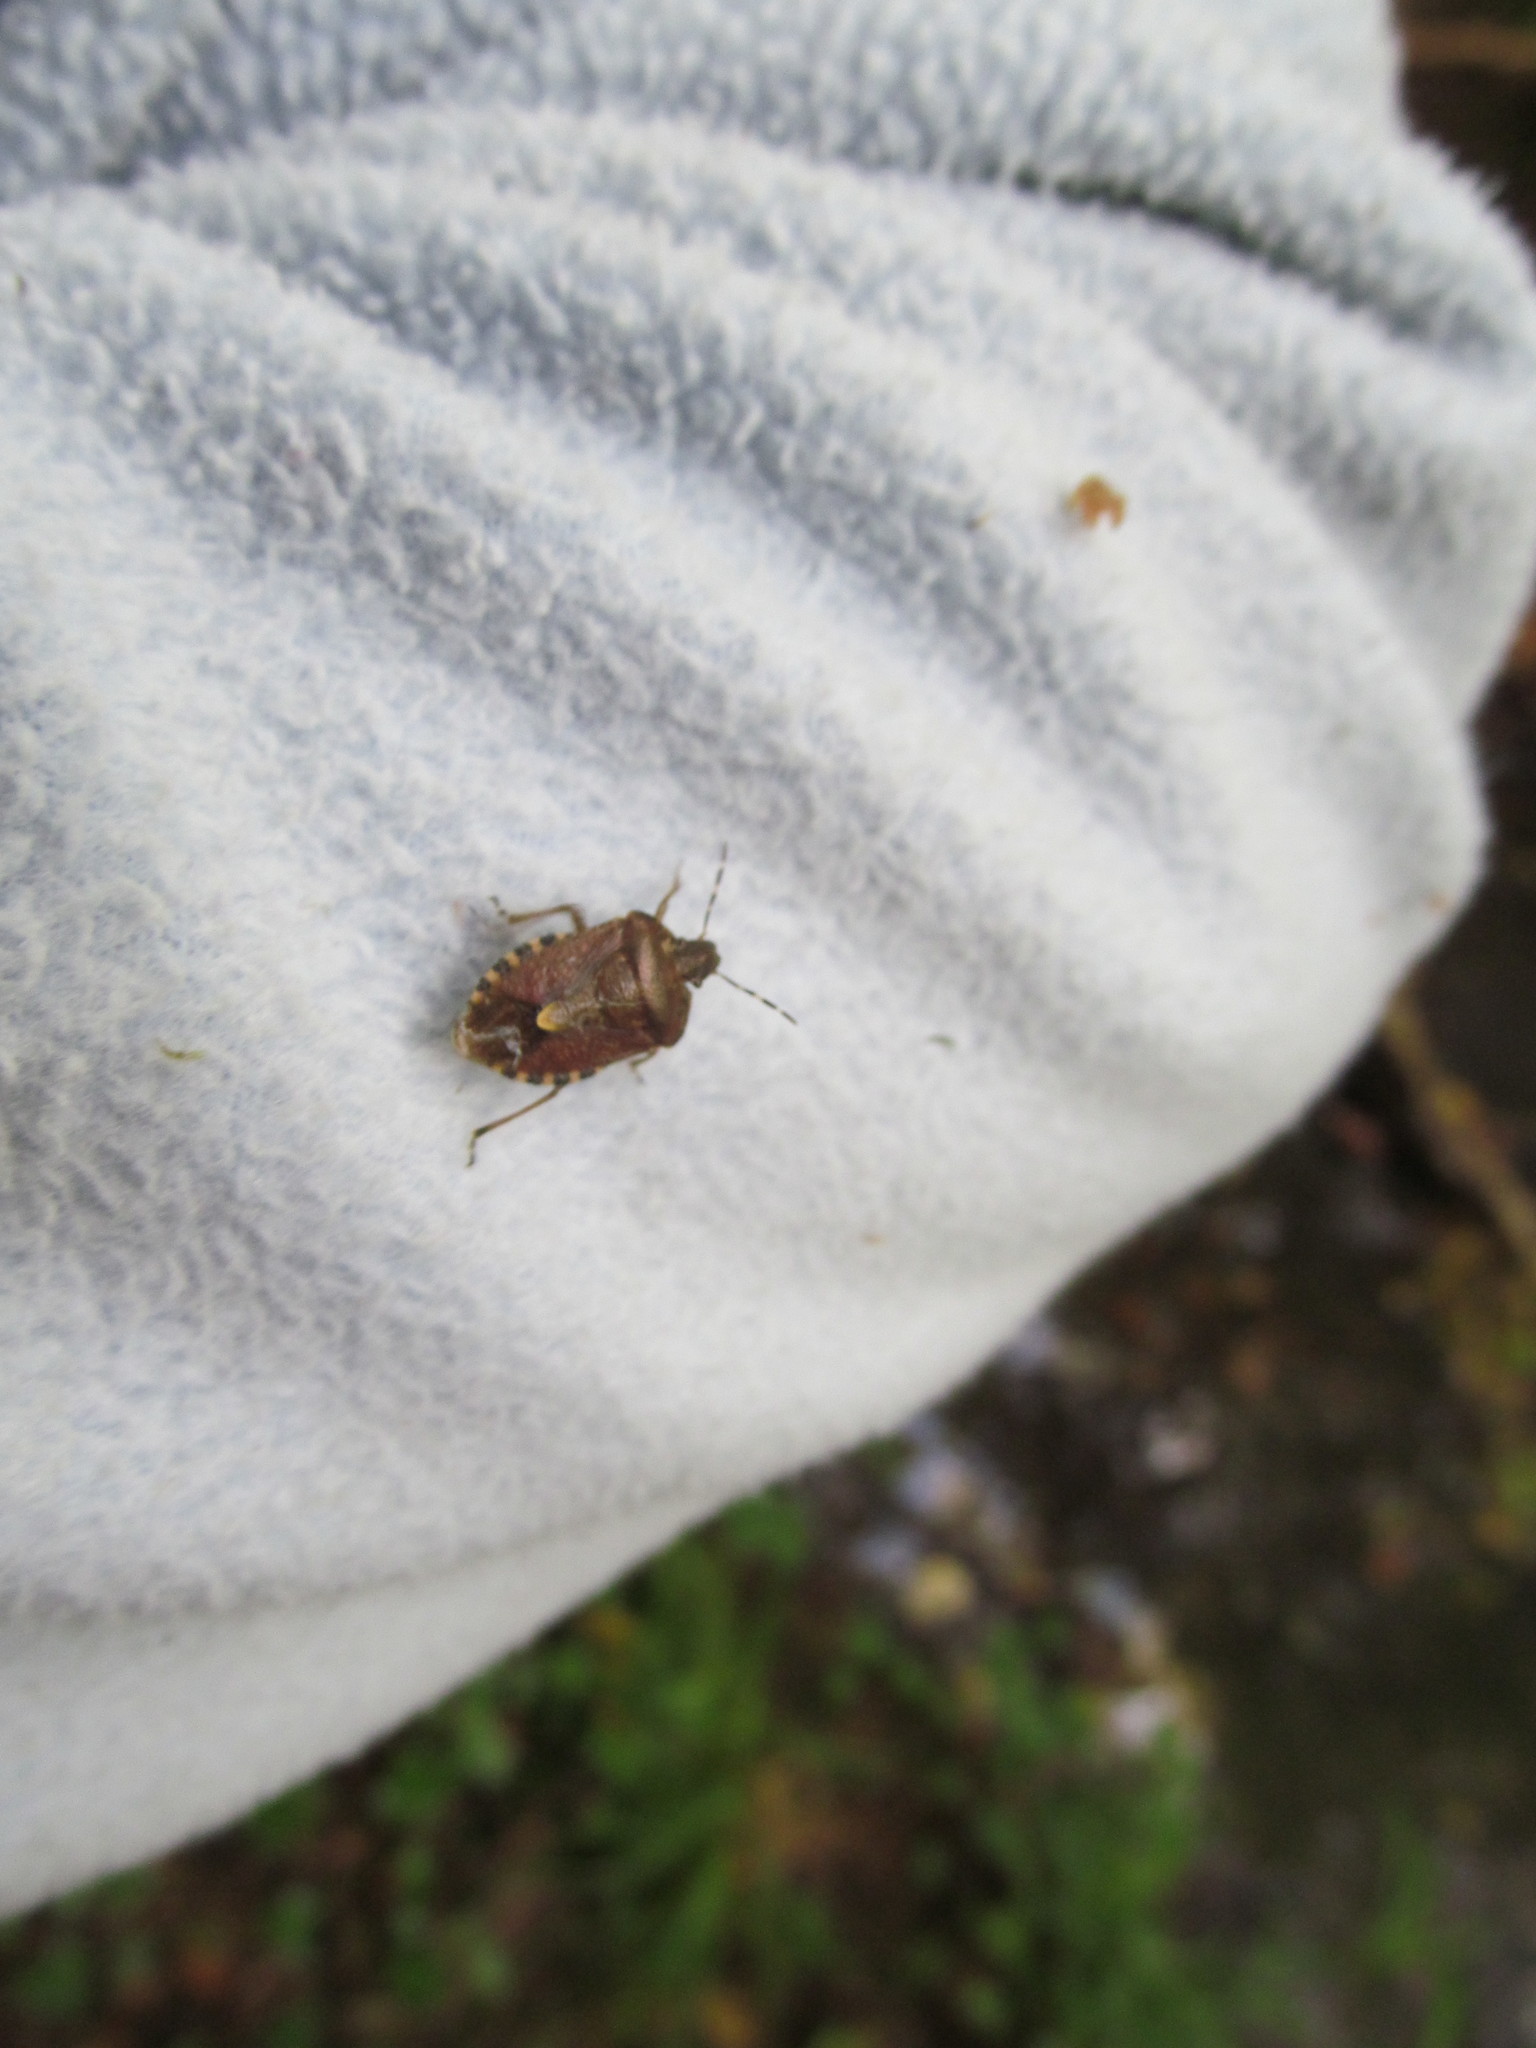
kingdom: Animalia
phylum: Arthropoda
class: Insecta
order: Hemiptera
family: Pentatomidae
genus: Dolycoris
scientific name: Dolycoris baccarum
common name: Sloe bug
